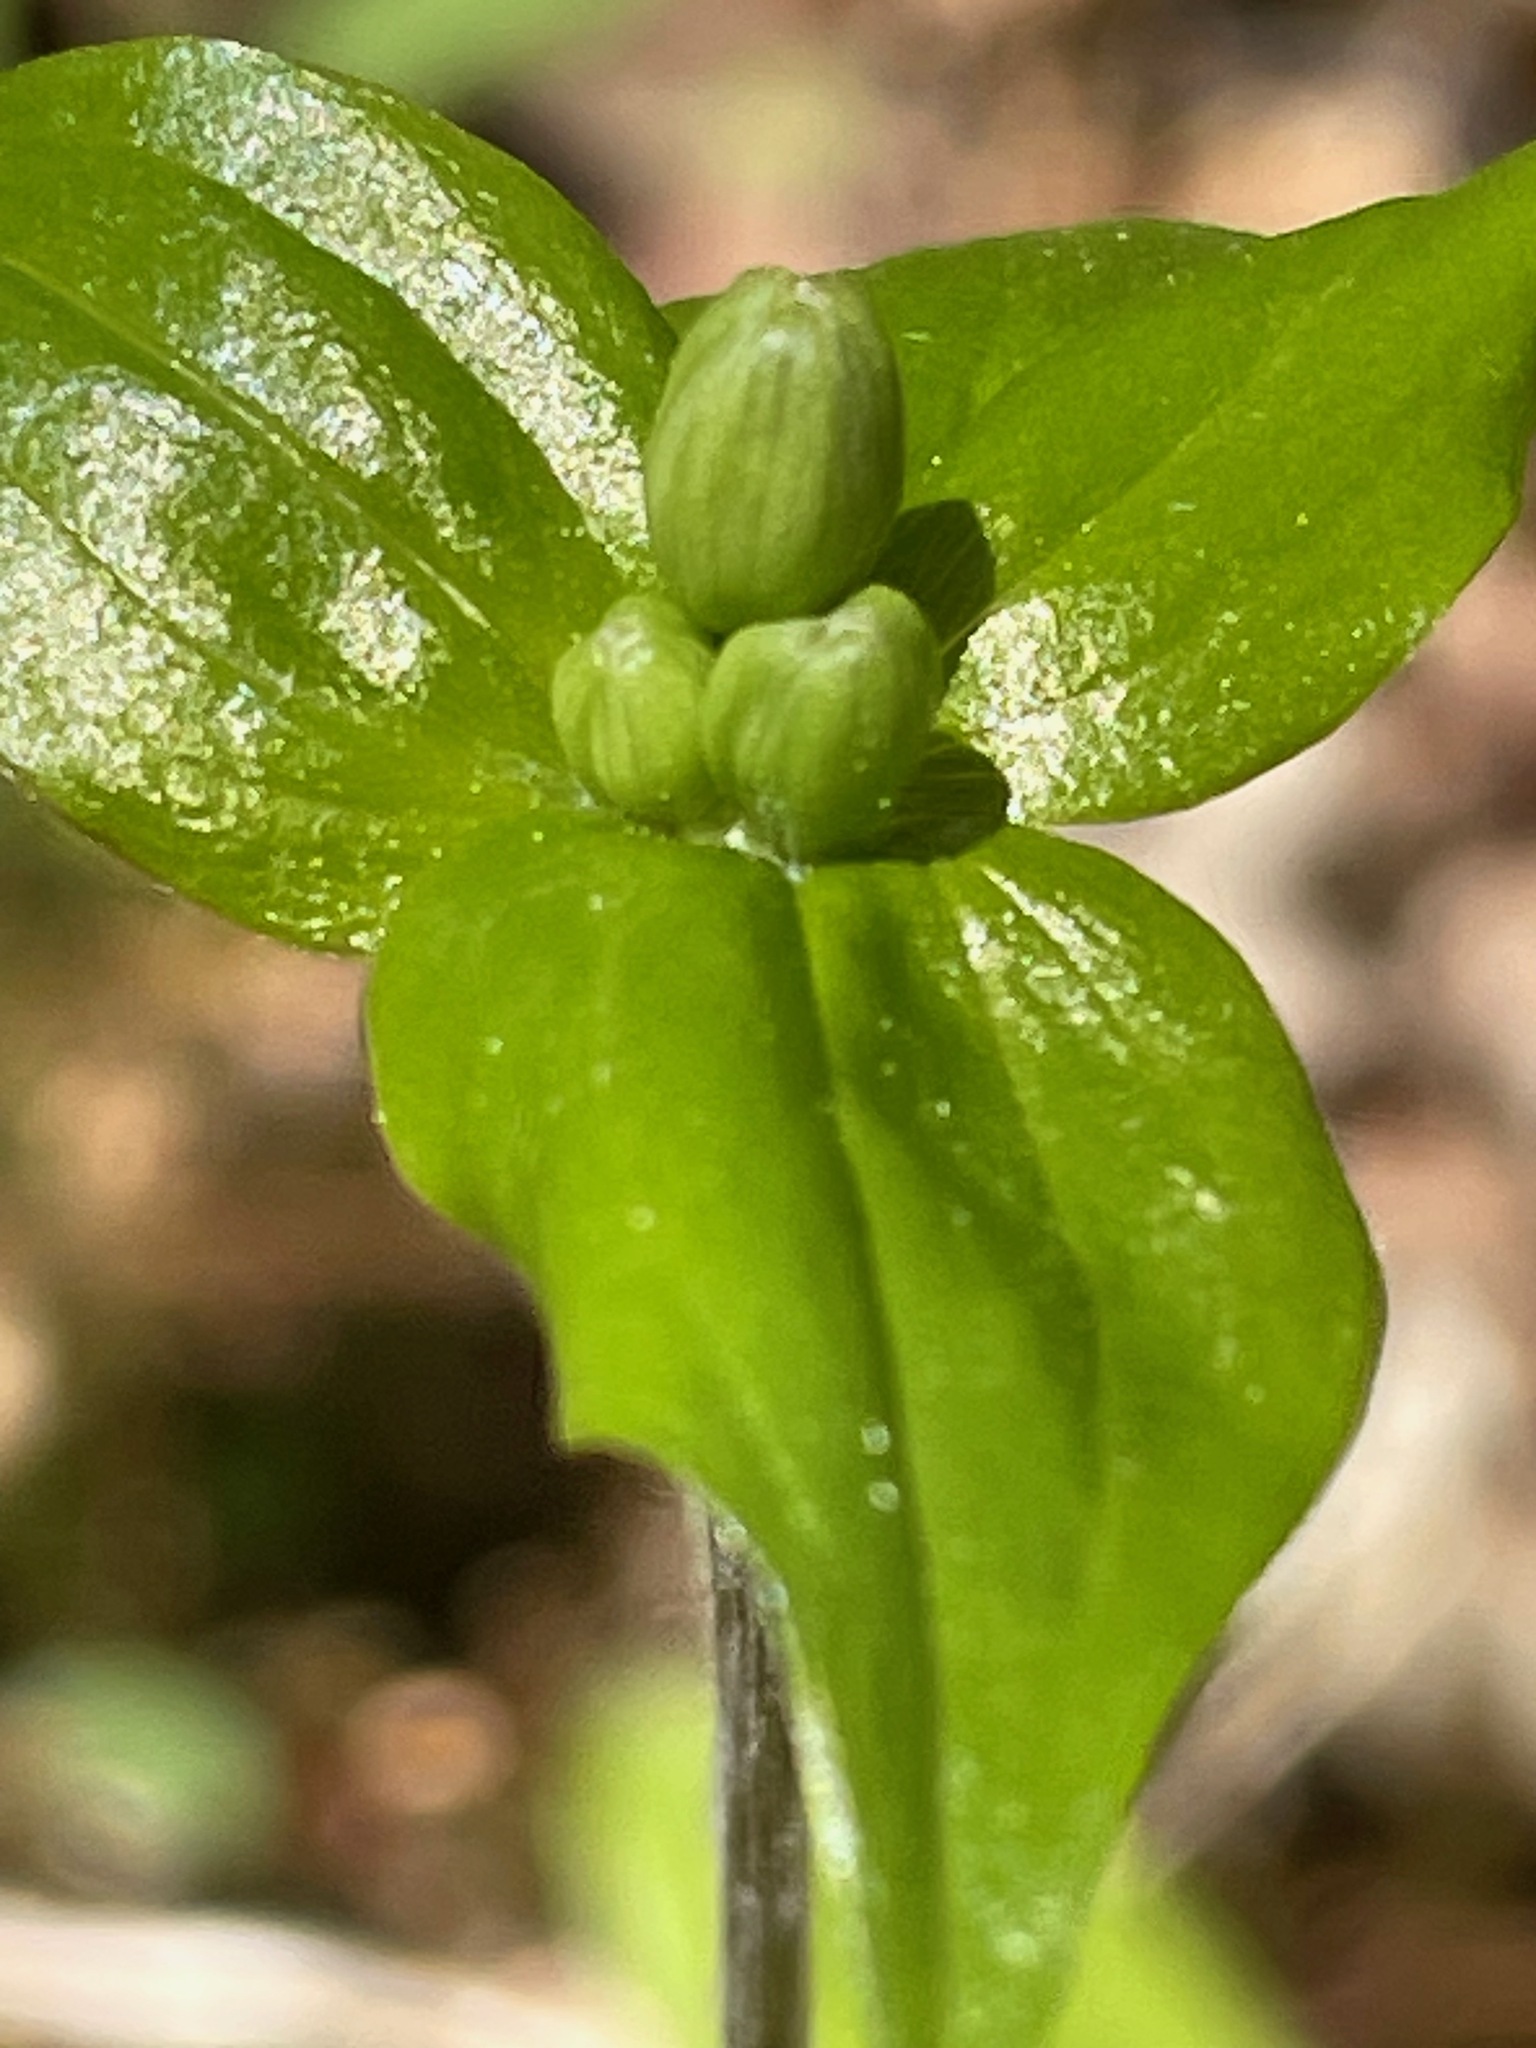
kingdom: Plantae
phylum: Tracheophyta
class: Liliopsida
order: Liliales
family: Liliaceae
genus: Medeola
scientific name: Medeola virginiana
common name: Indian cucumber-root
